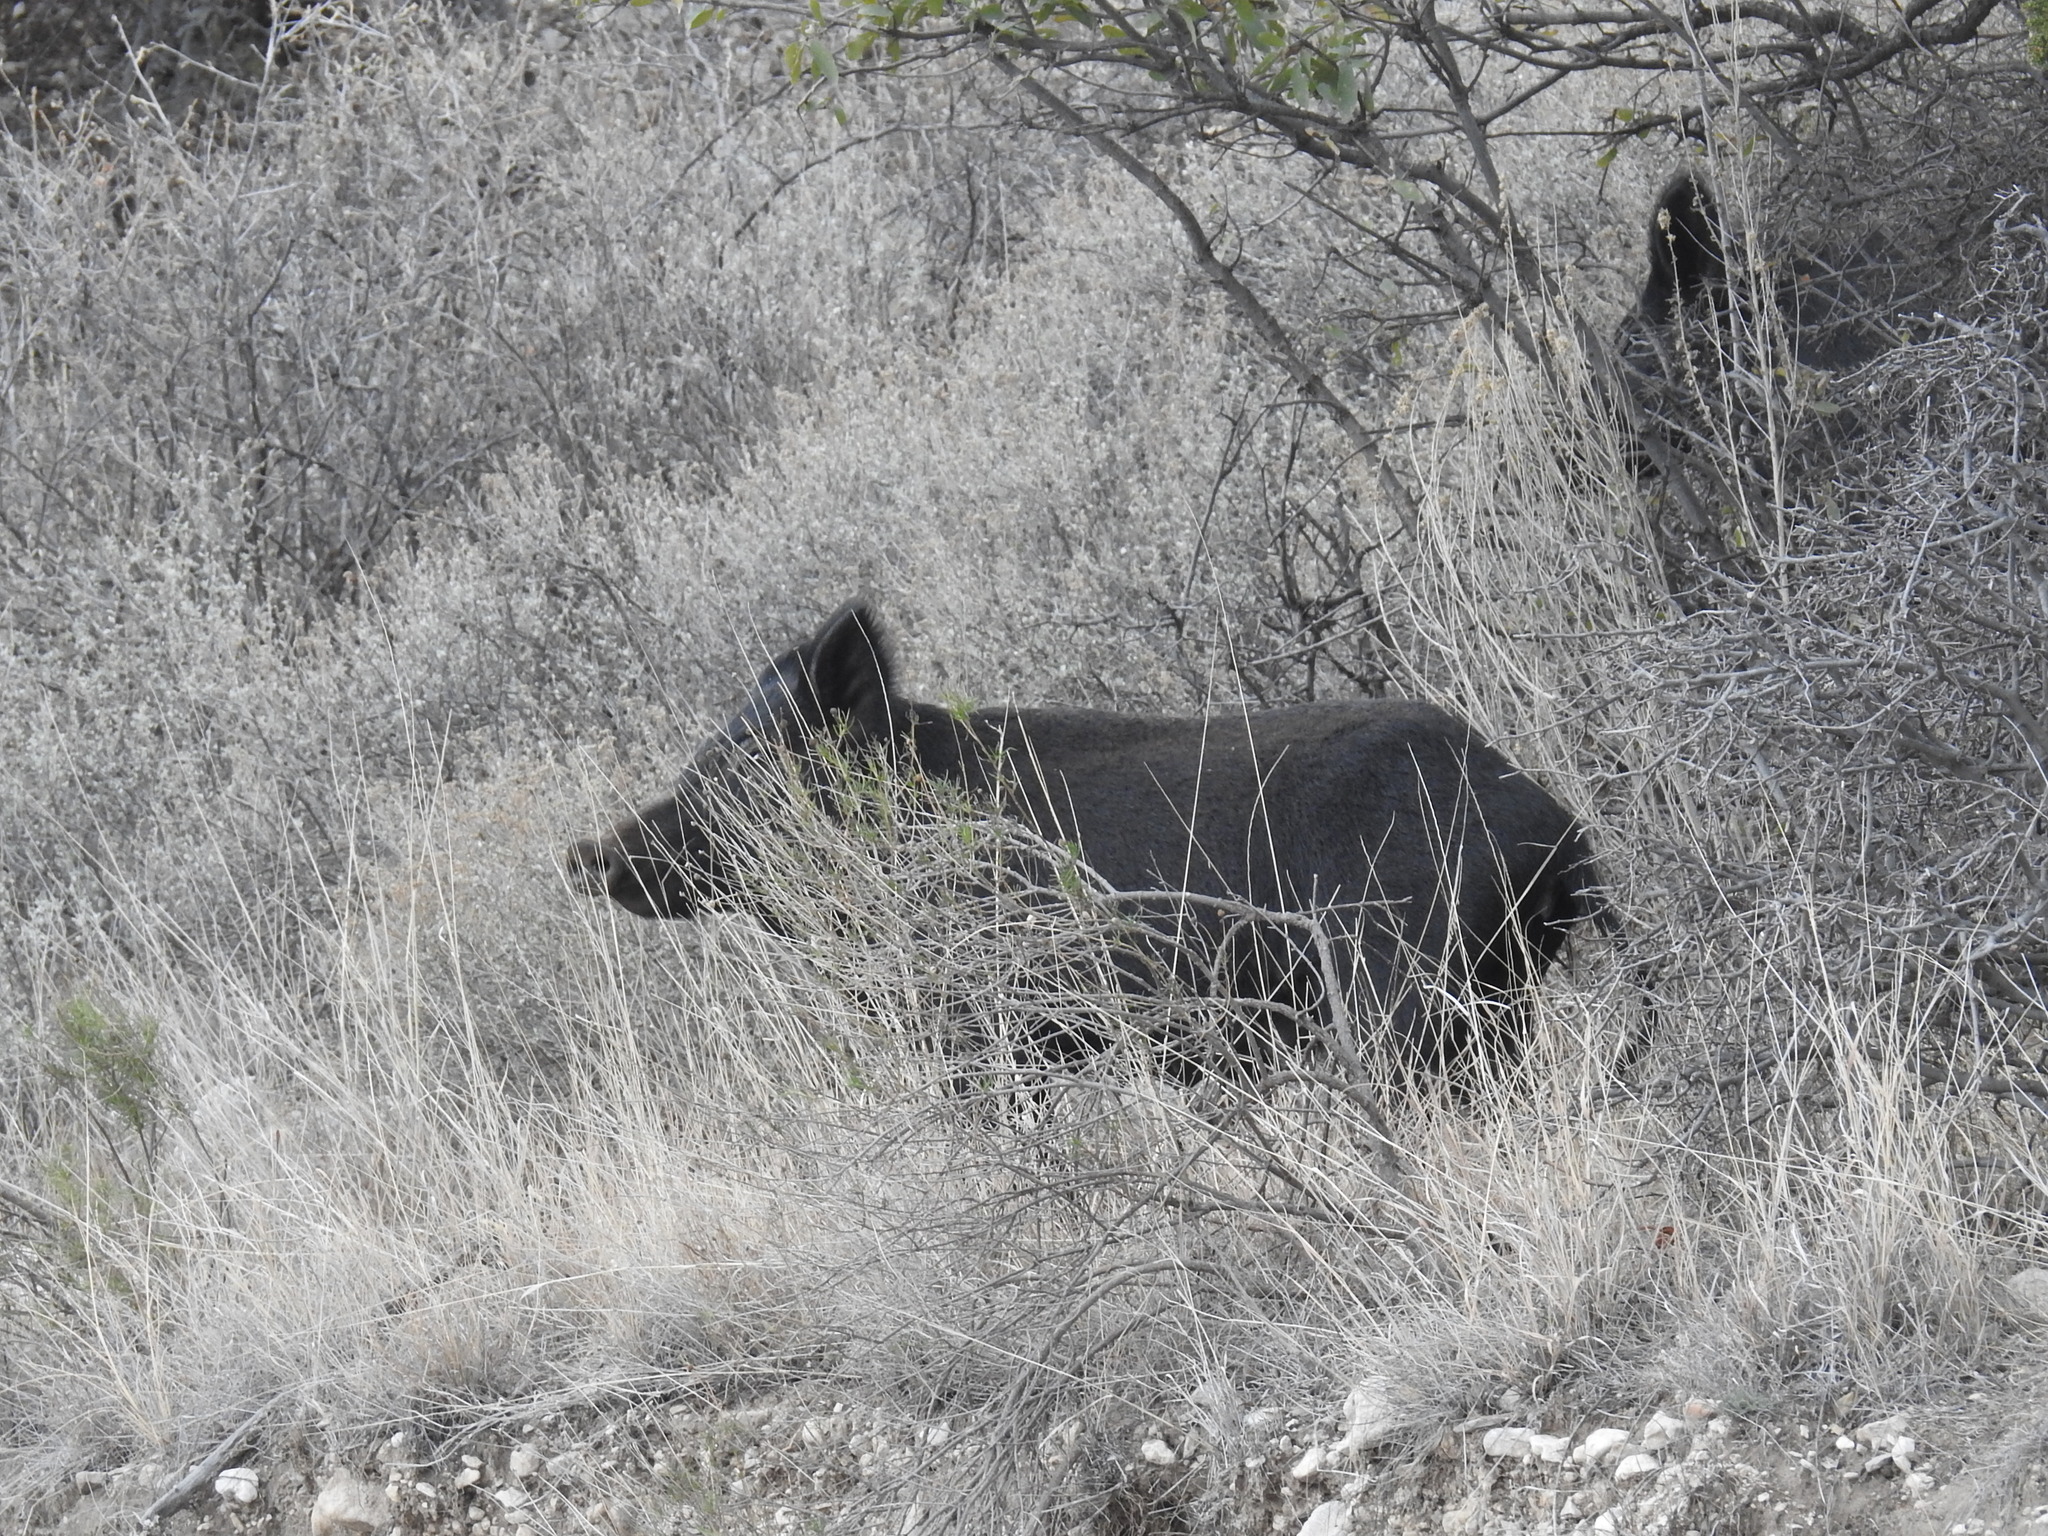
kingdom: Animalia
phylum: Chordata
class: Mammalia
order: Artiodactyla
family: Suidae
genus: Sus
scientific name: Sus scrofa
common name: Wild boar
